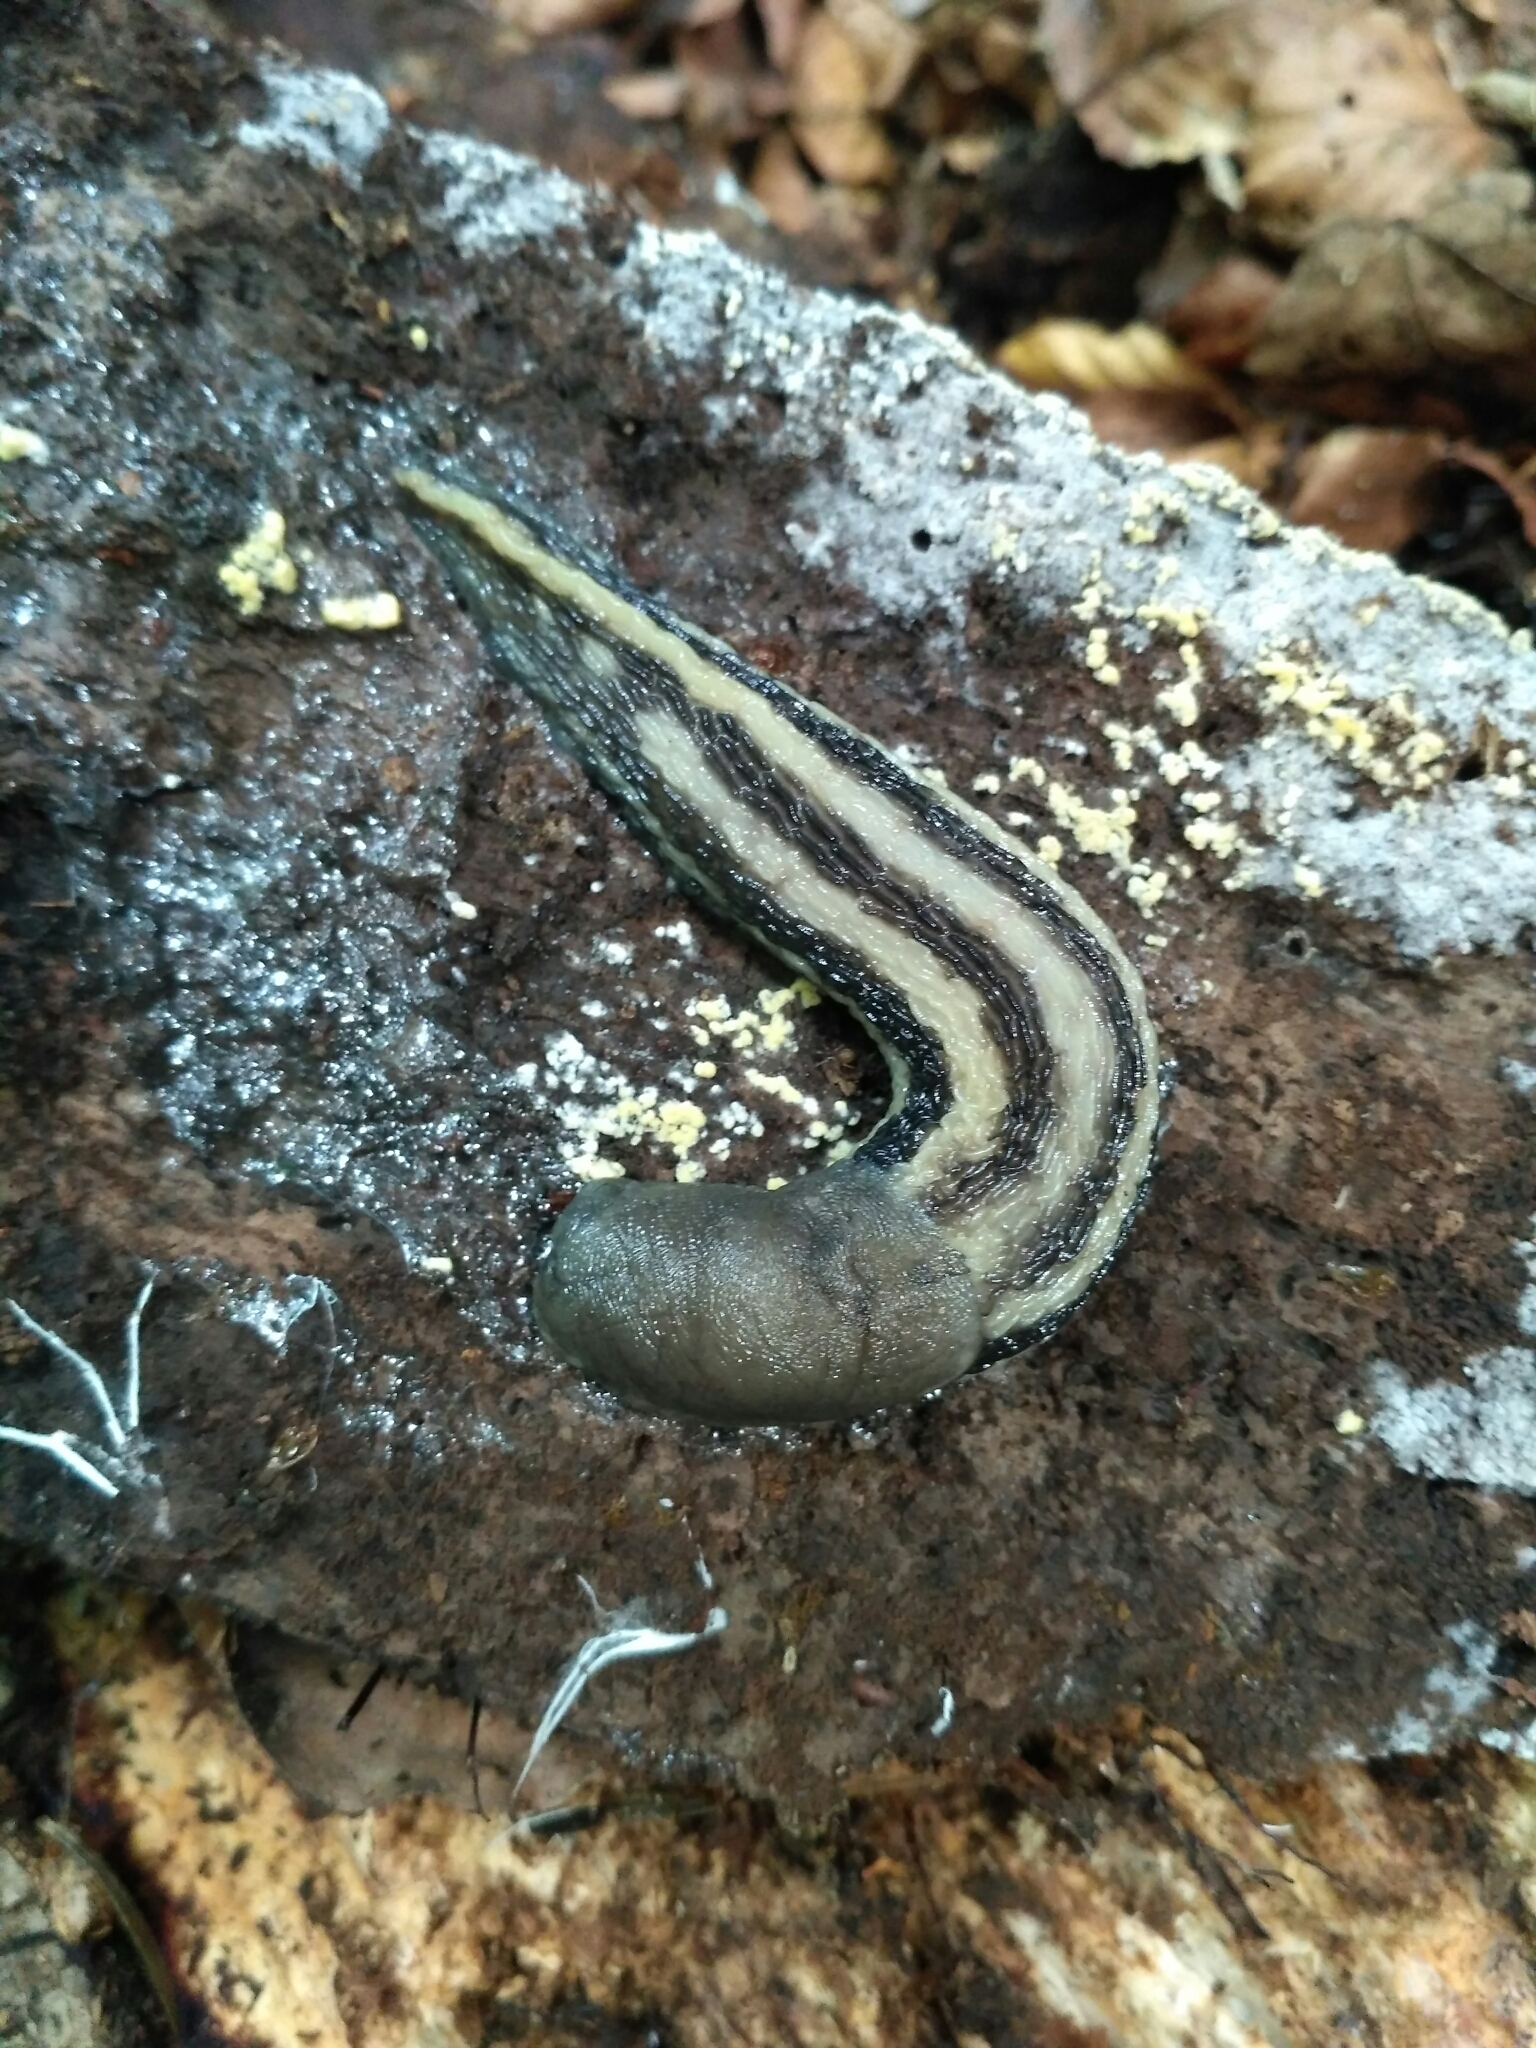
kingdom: Animalia
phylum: Mollusca
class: Gastropoda
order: Stylommatophora
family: Limacidae
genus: Limax
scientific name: Limax cinereoniger
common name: Ash-black slug
